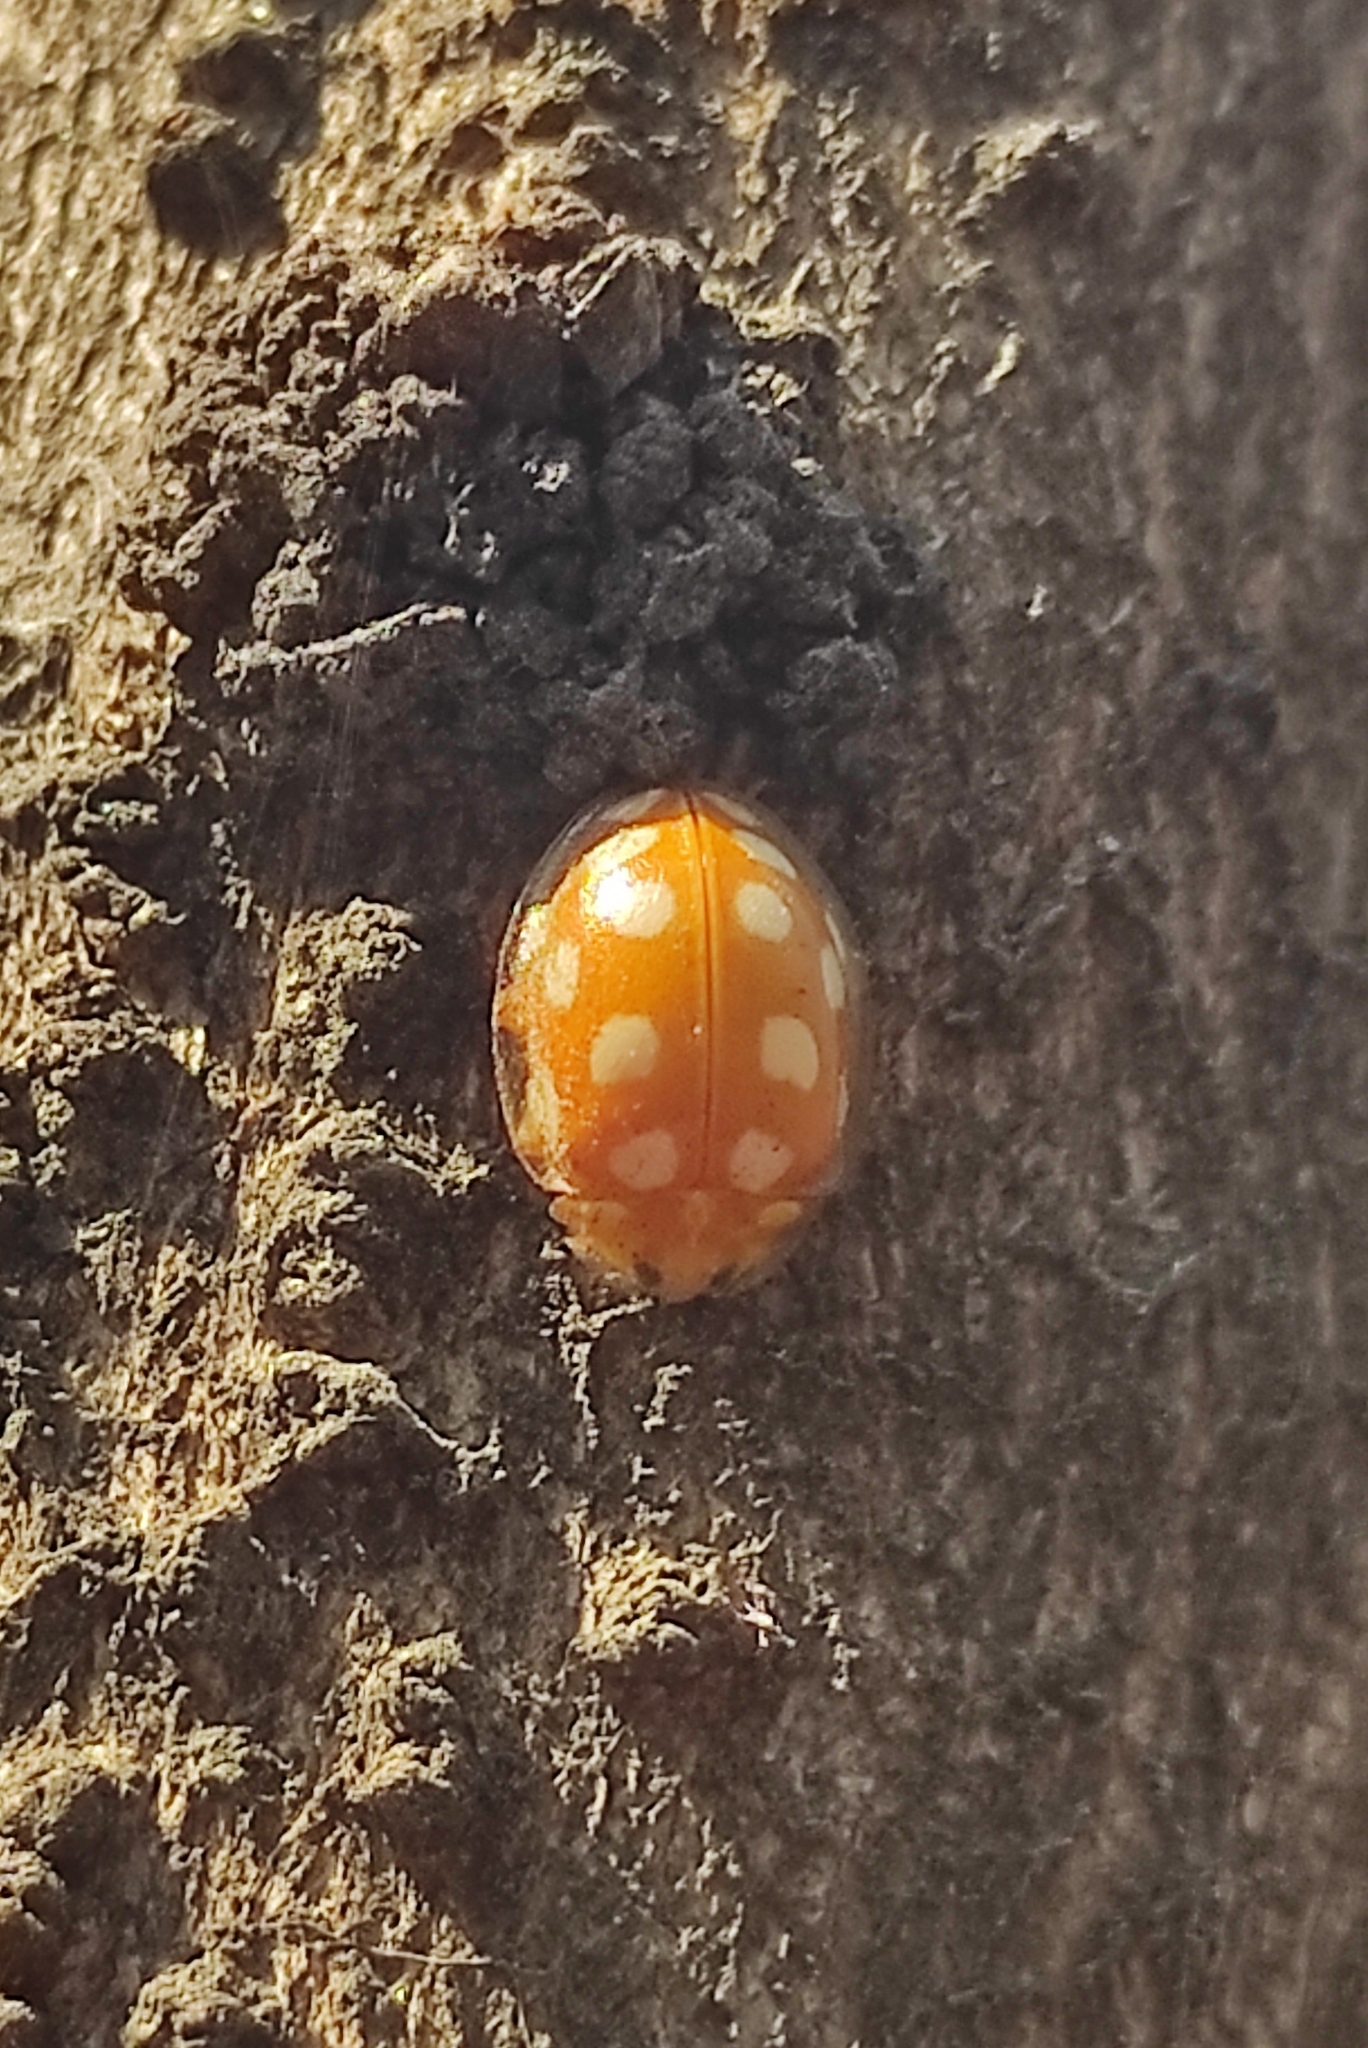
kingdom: Animalia
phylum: Arthropoda
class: Insecta
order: Coleoptera
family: Coccinellidae
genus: Halyzia
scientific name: Halyzia sedecimguttata
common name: Orange ladybird
